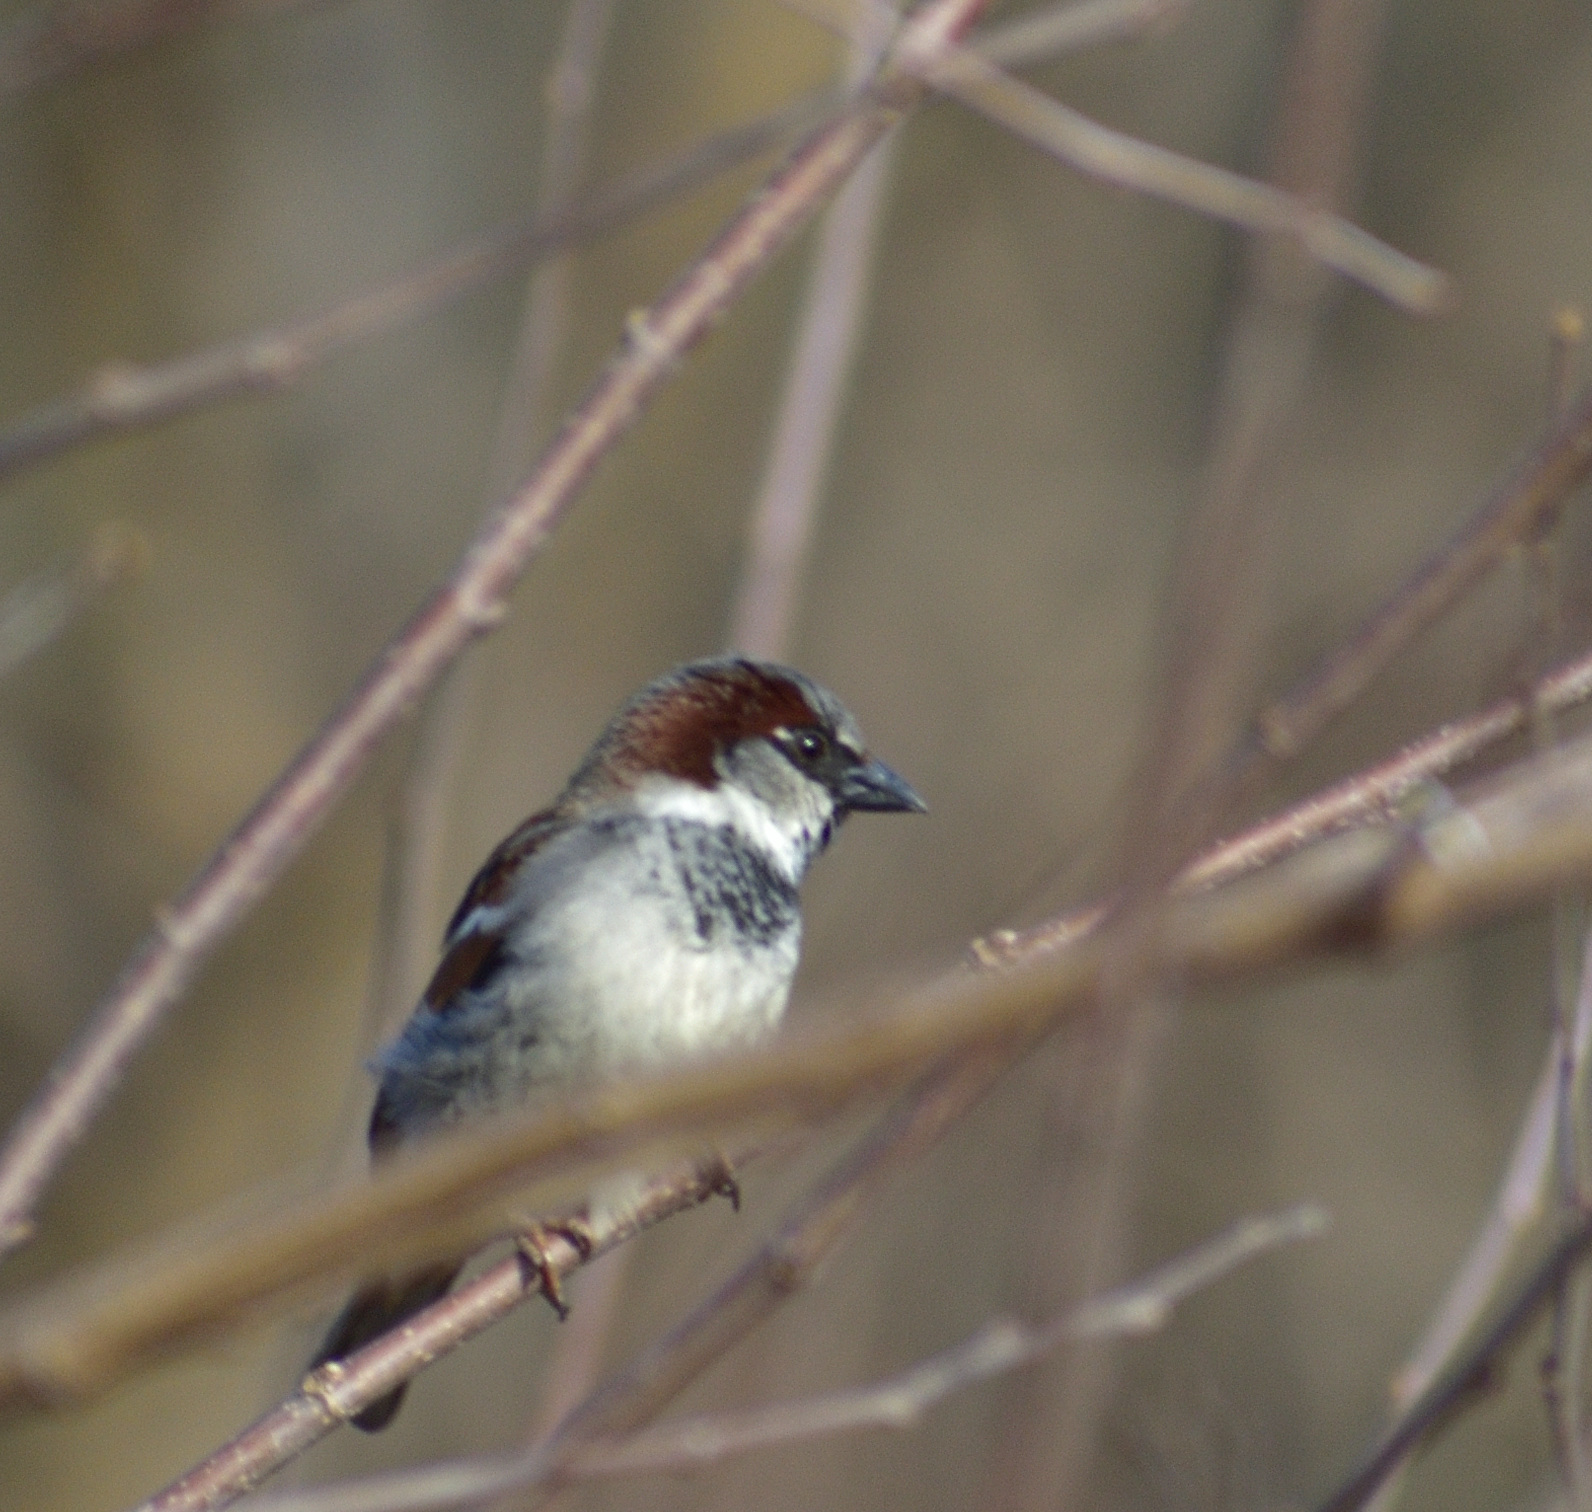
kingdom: Animalia
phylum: Chordata
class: Aves
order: Passeriformes
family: Passeridae
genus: Passer
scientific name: Passer domesticus
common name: House sparrow
